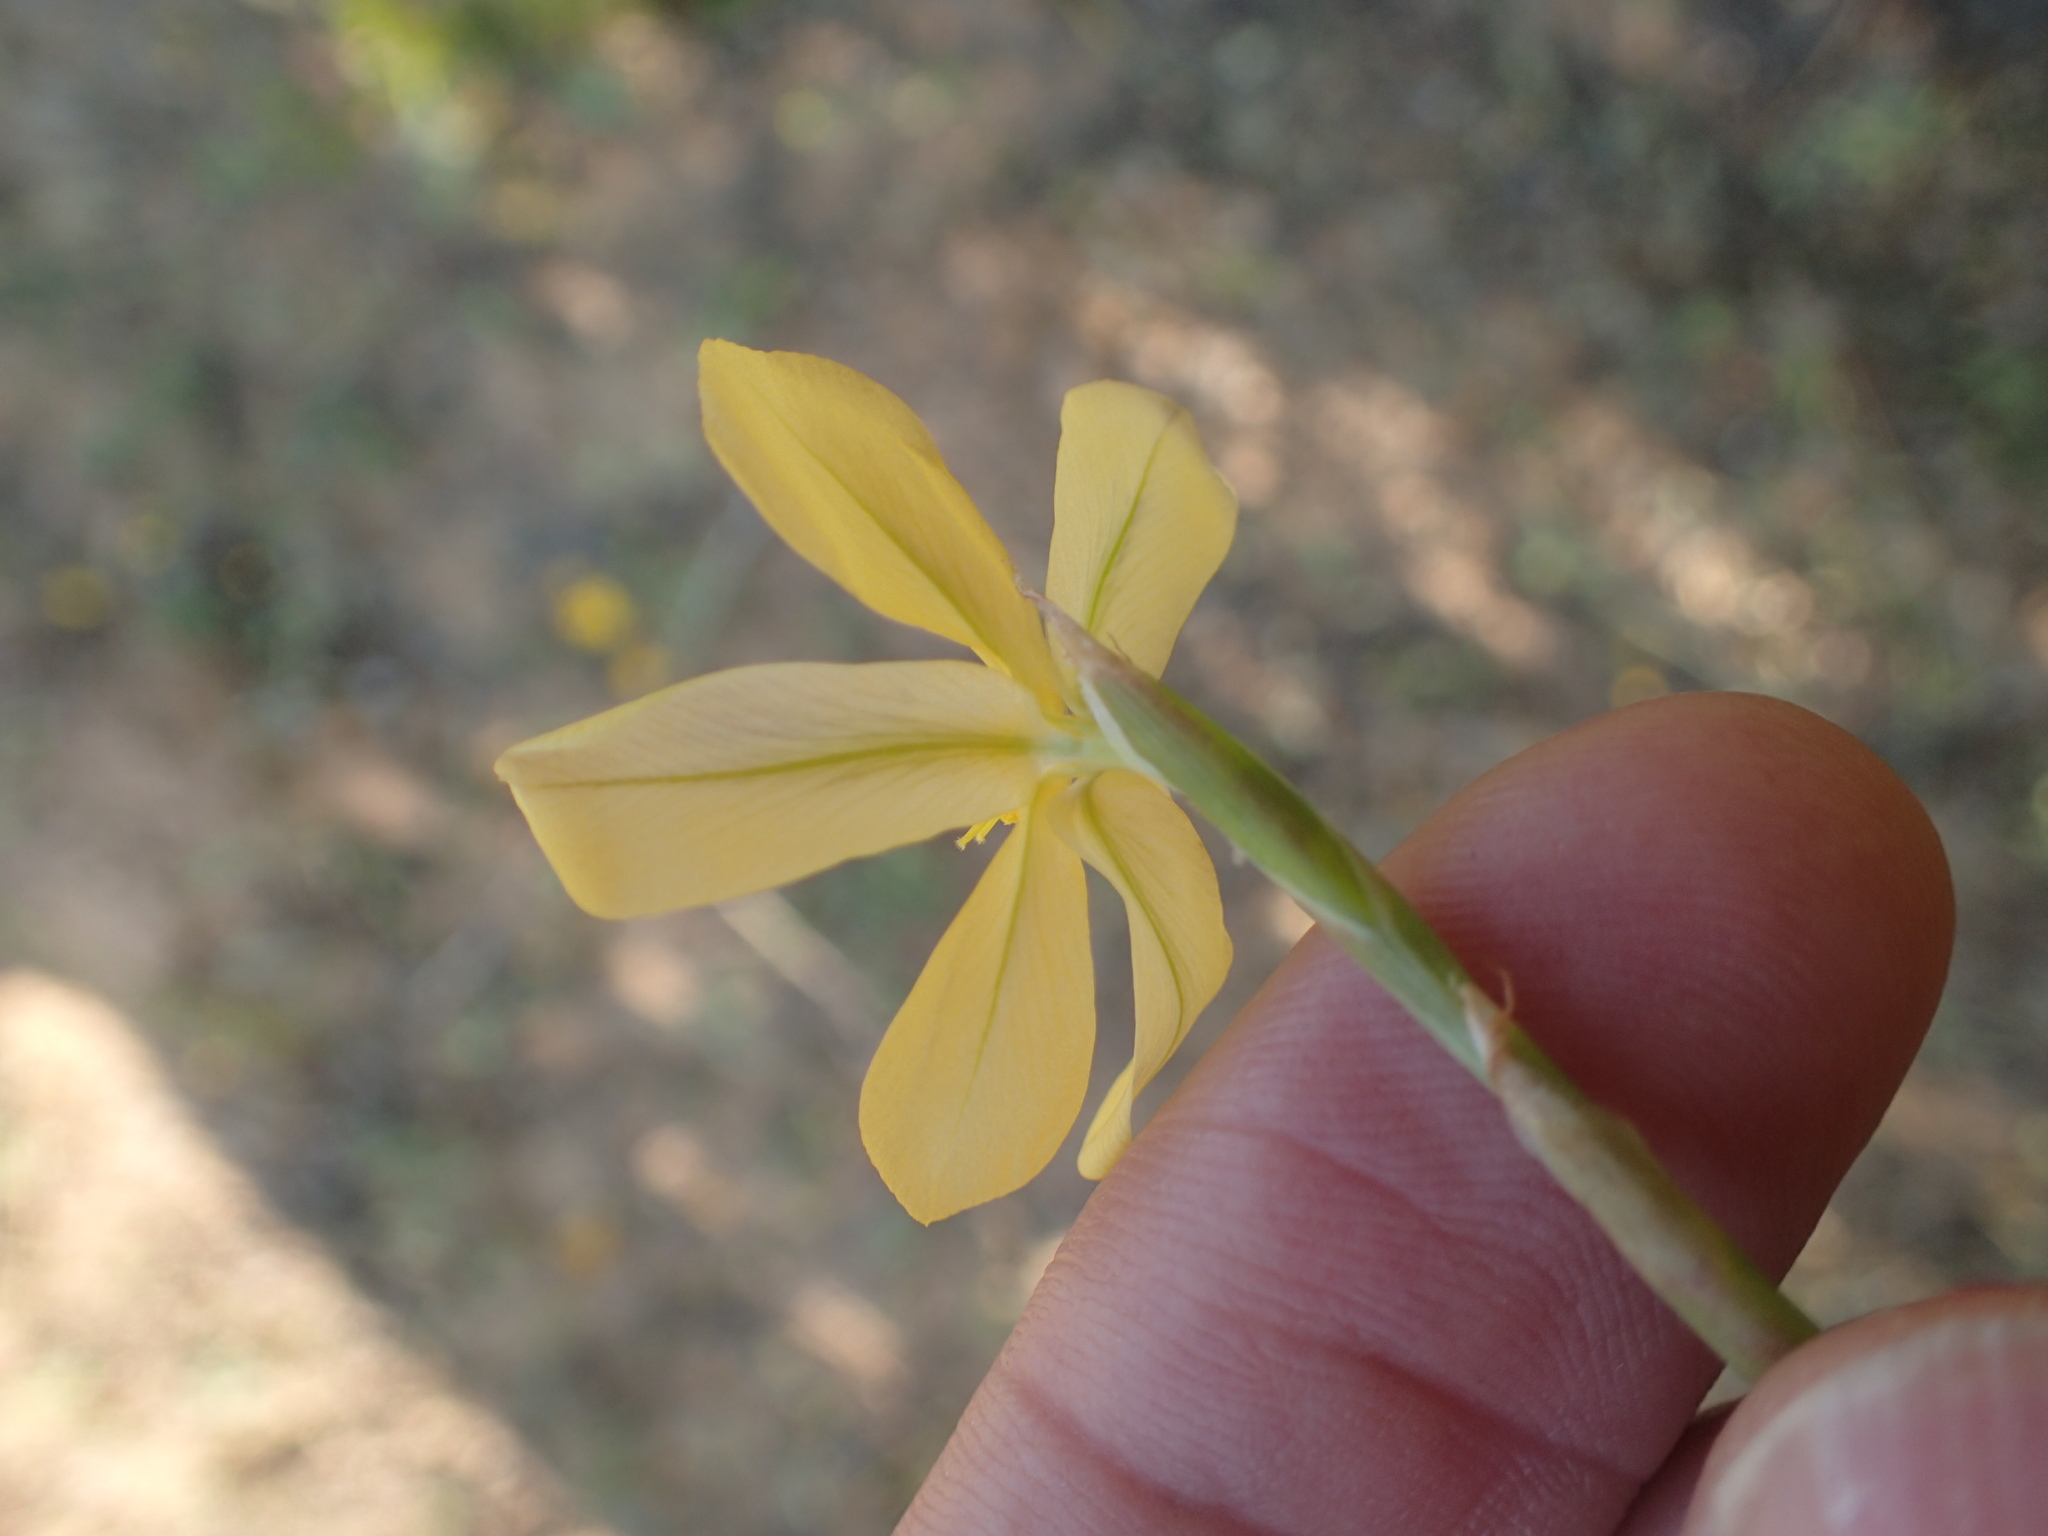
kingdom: Plantae
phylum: Tracheophyta
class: Liliopsida
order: Asparagales
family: Iridaceae
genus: Moraea
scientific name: Moraea virgata
